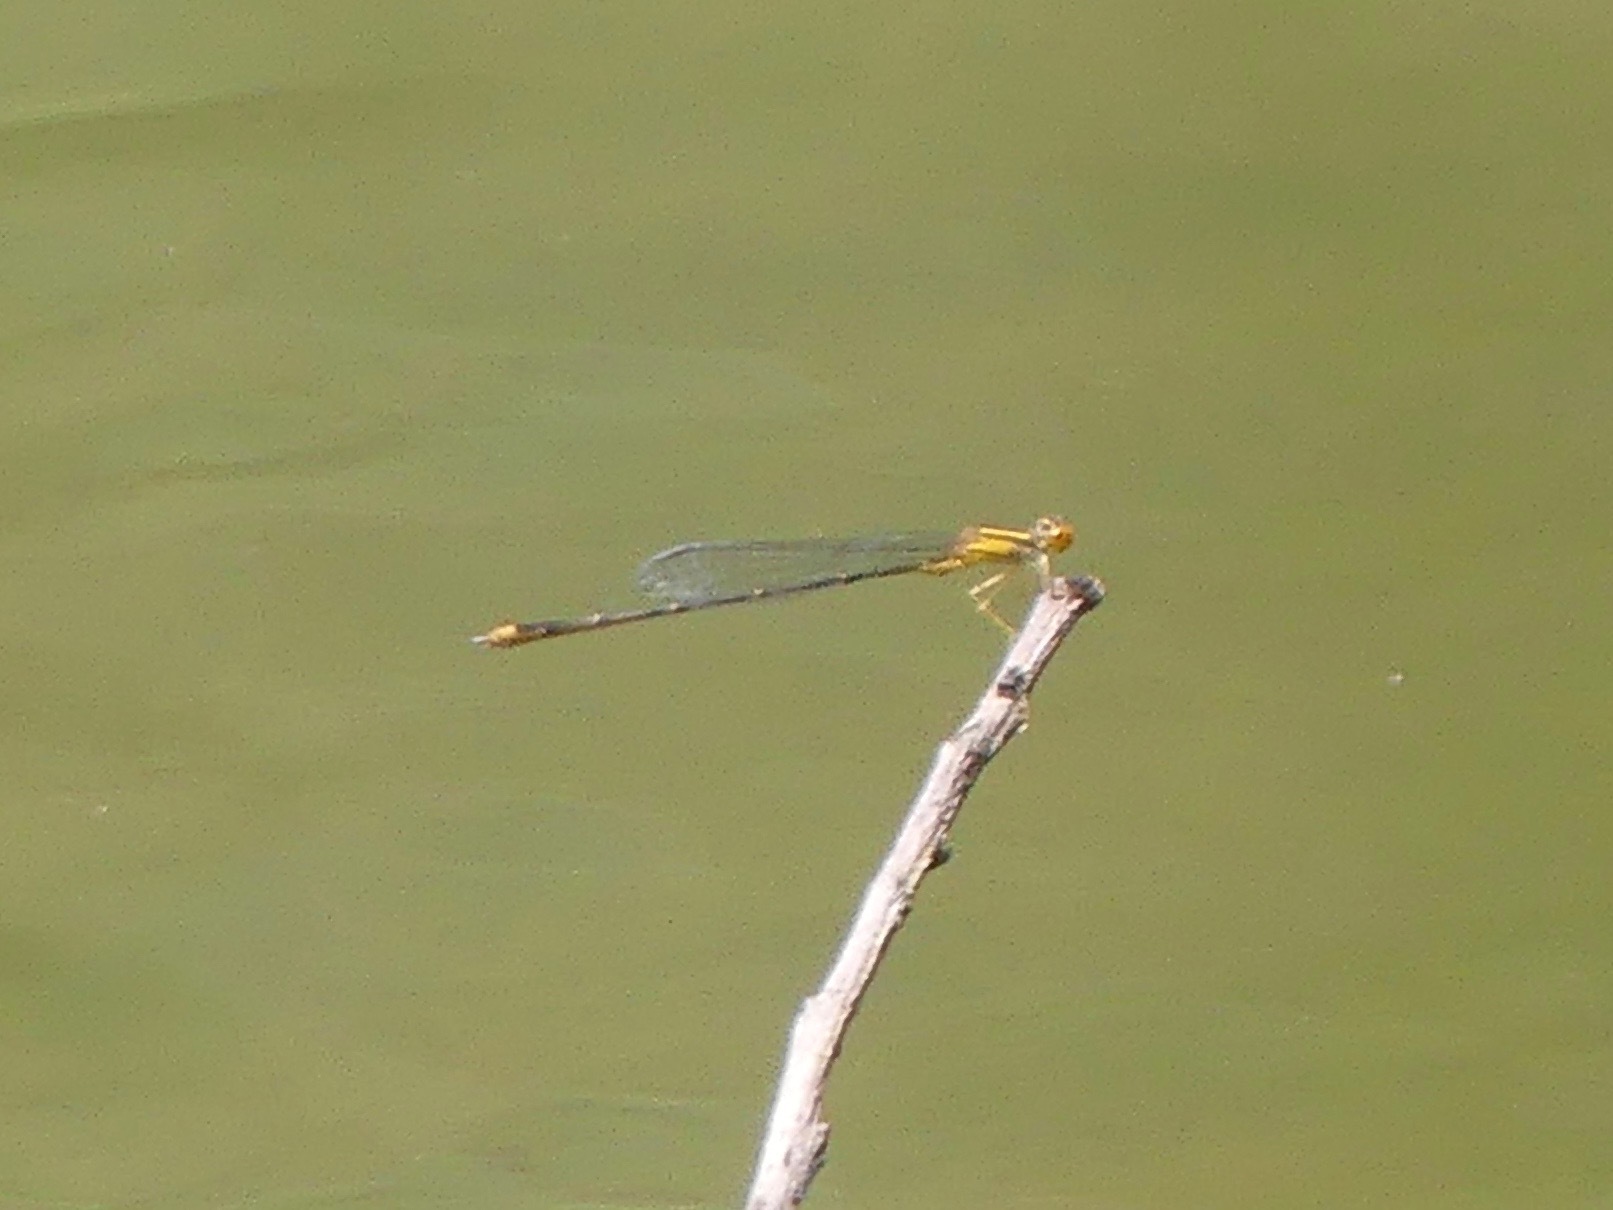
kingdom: Animalia
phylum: Arthropoda
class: Insecta
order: Odonata
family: Coenagrionidae
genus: Enallagma
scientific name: Enallagma signatum
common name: Orange bluet
